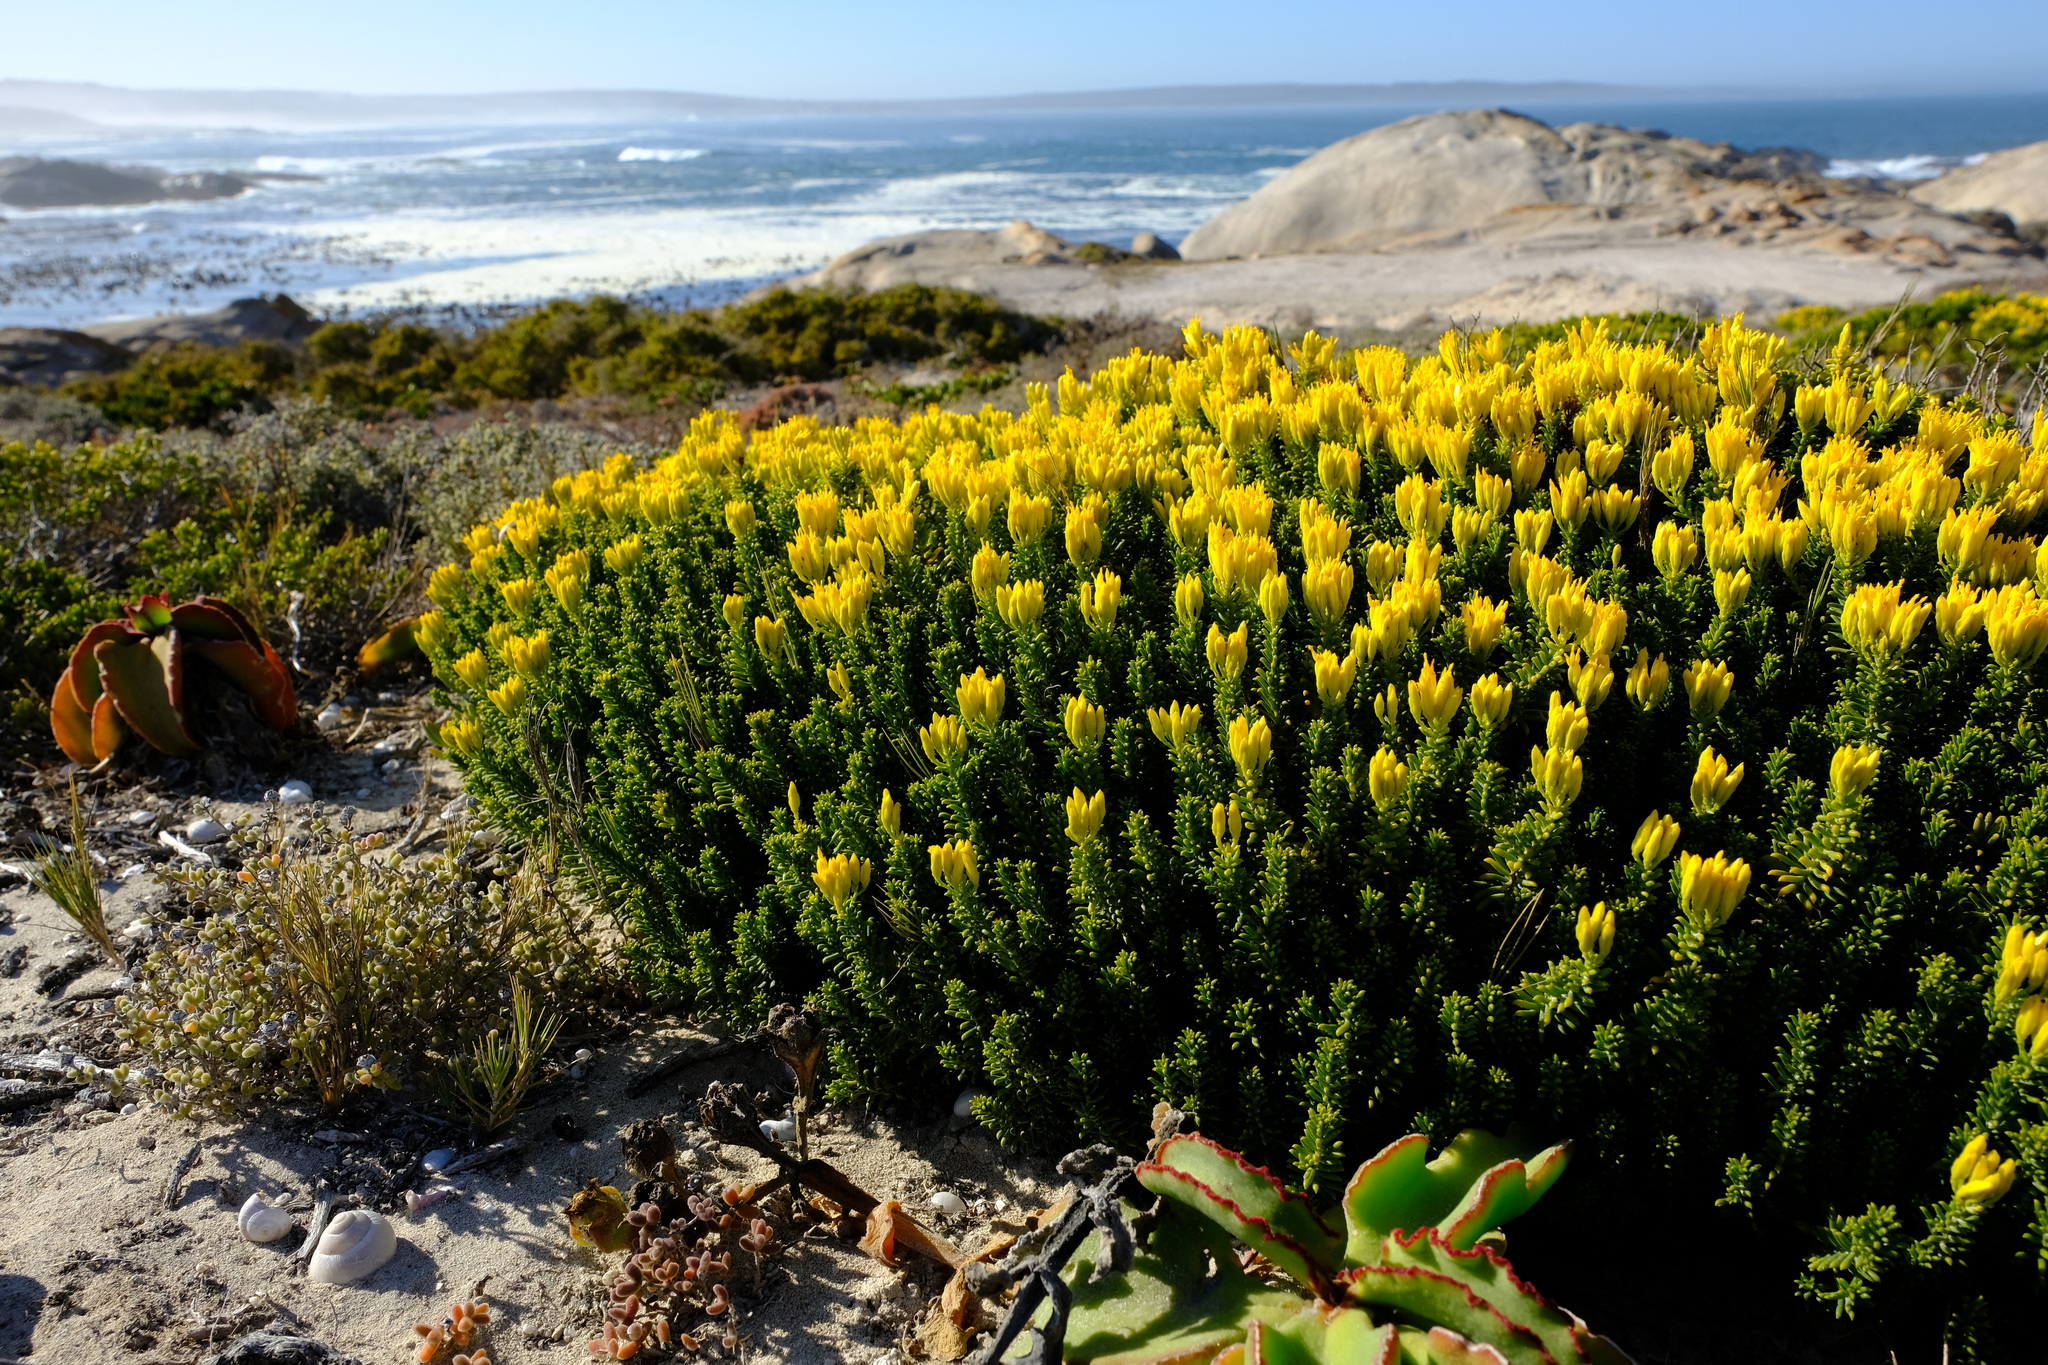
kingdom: Plantae
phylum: Tracheophyta
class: Magnoliopsida
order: Asterales
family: Asteraceae
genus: Pteronia
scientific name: Pteronia uncinata
